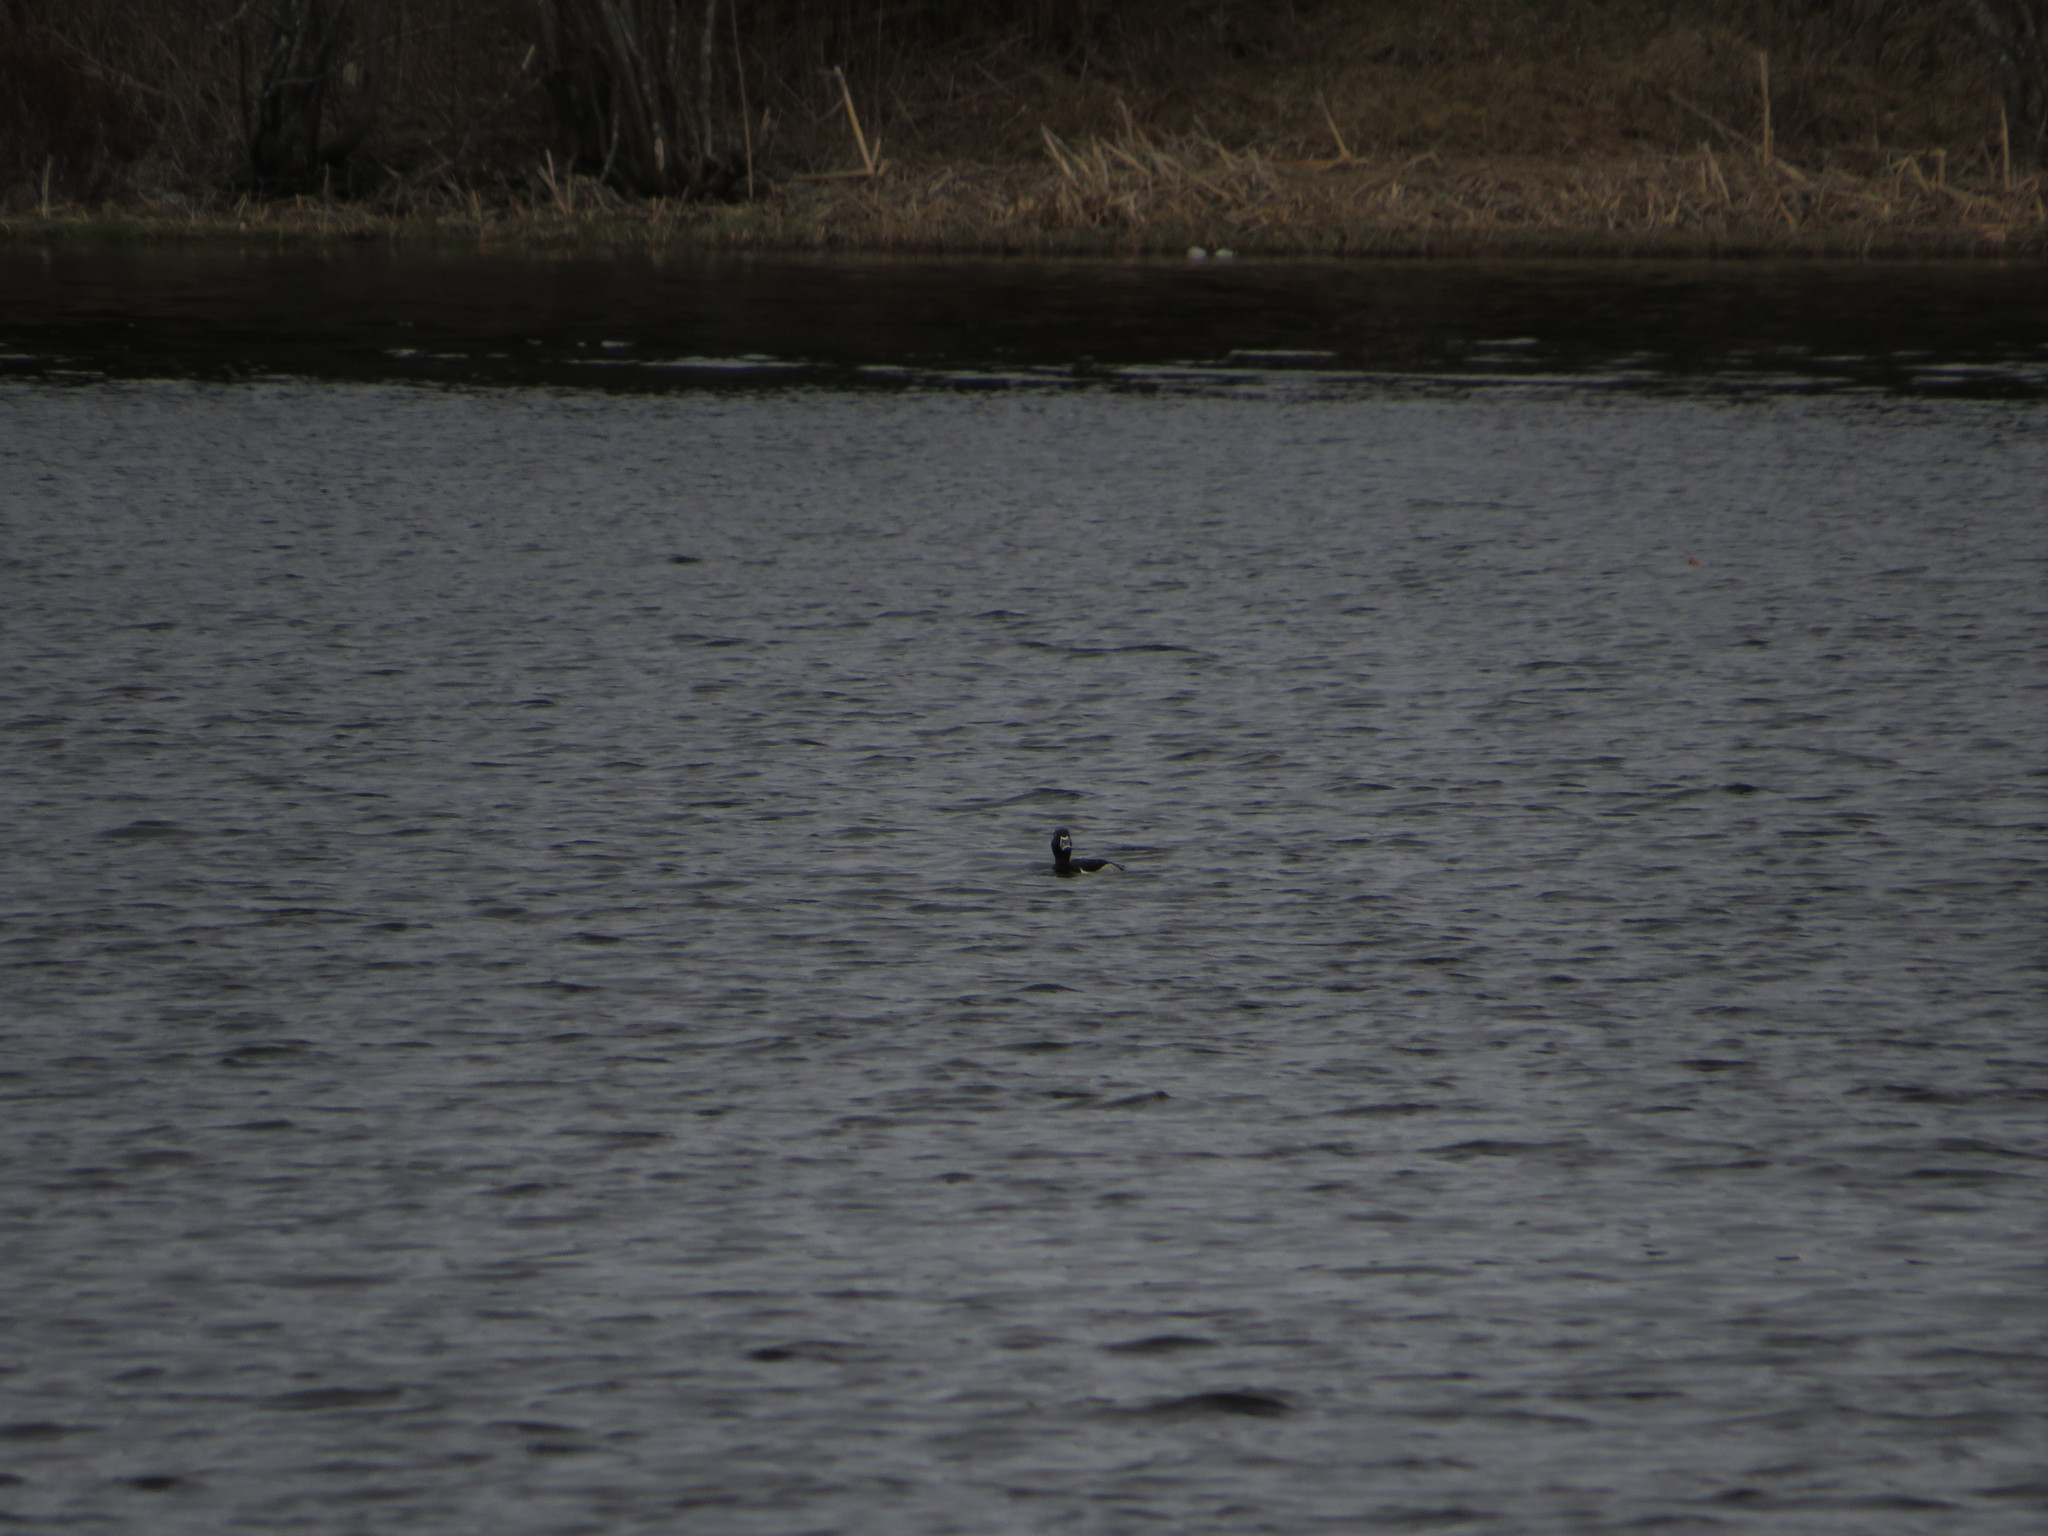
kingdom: Animalia
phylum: Chordata
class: Aves
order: Anseriformes
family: Anatidae
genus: Aythya
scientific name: Aythya collaris
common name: Ring-necked duck
